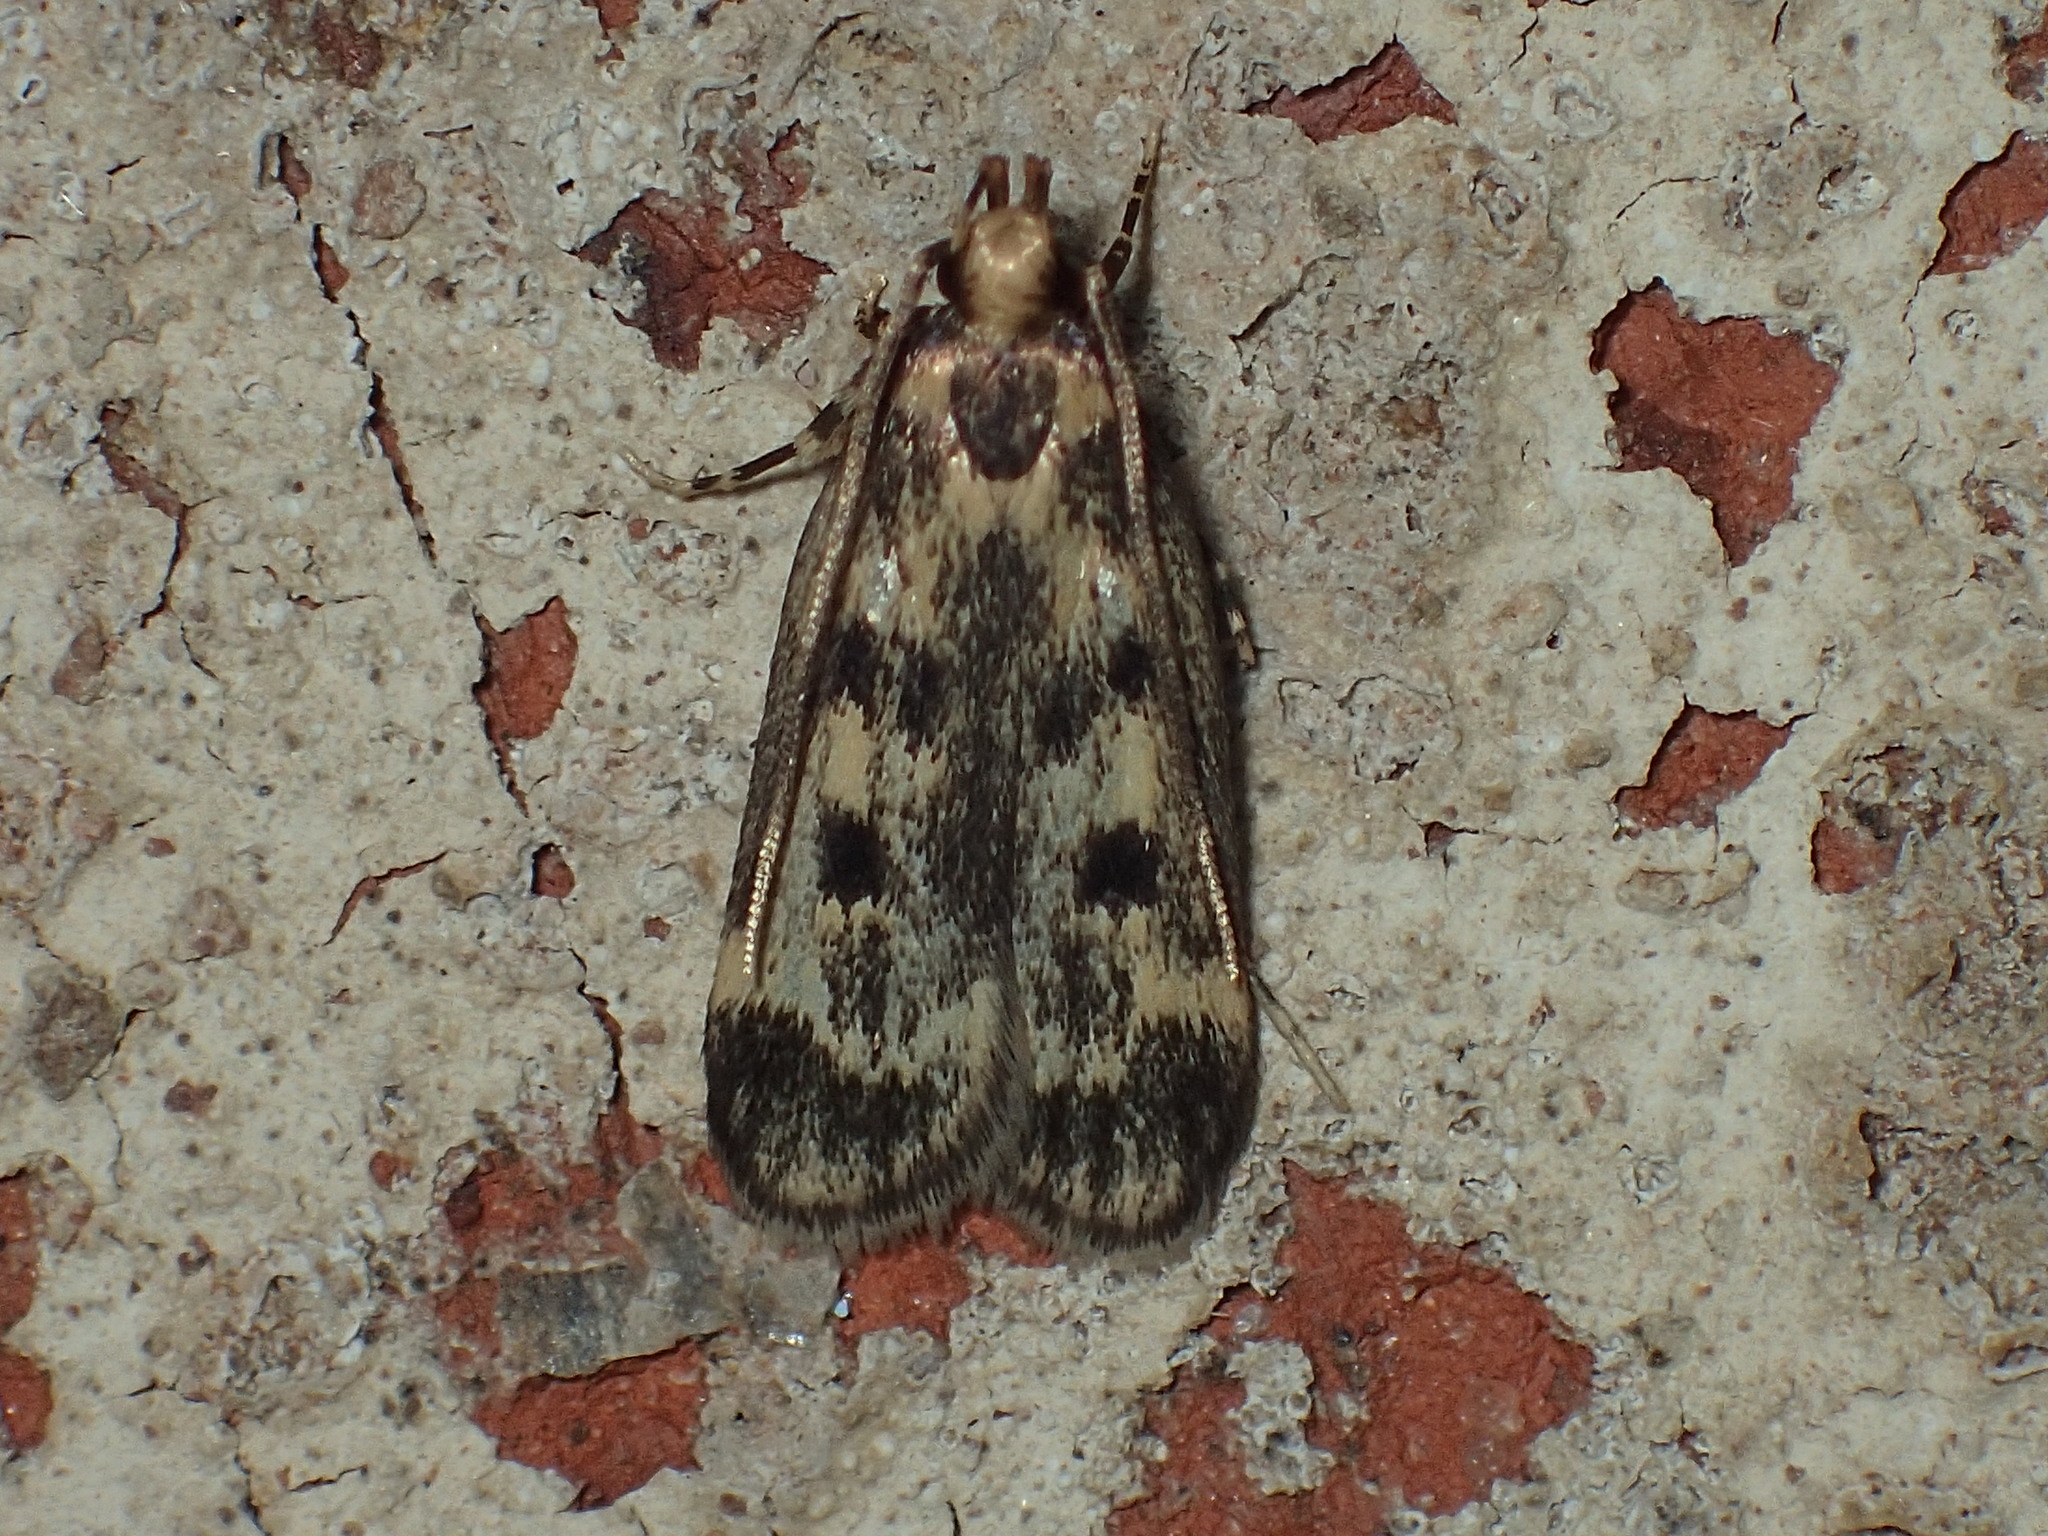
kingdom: Animalia
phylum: Arthropoda
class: Insecta
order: Lepidoptera
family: Lecithoceridae
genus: Martyringa
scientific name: Martyringa latipennis
